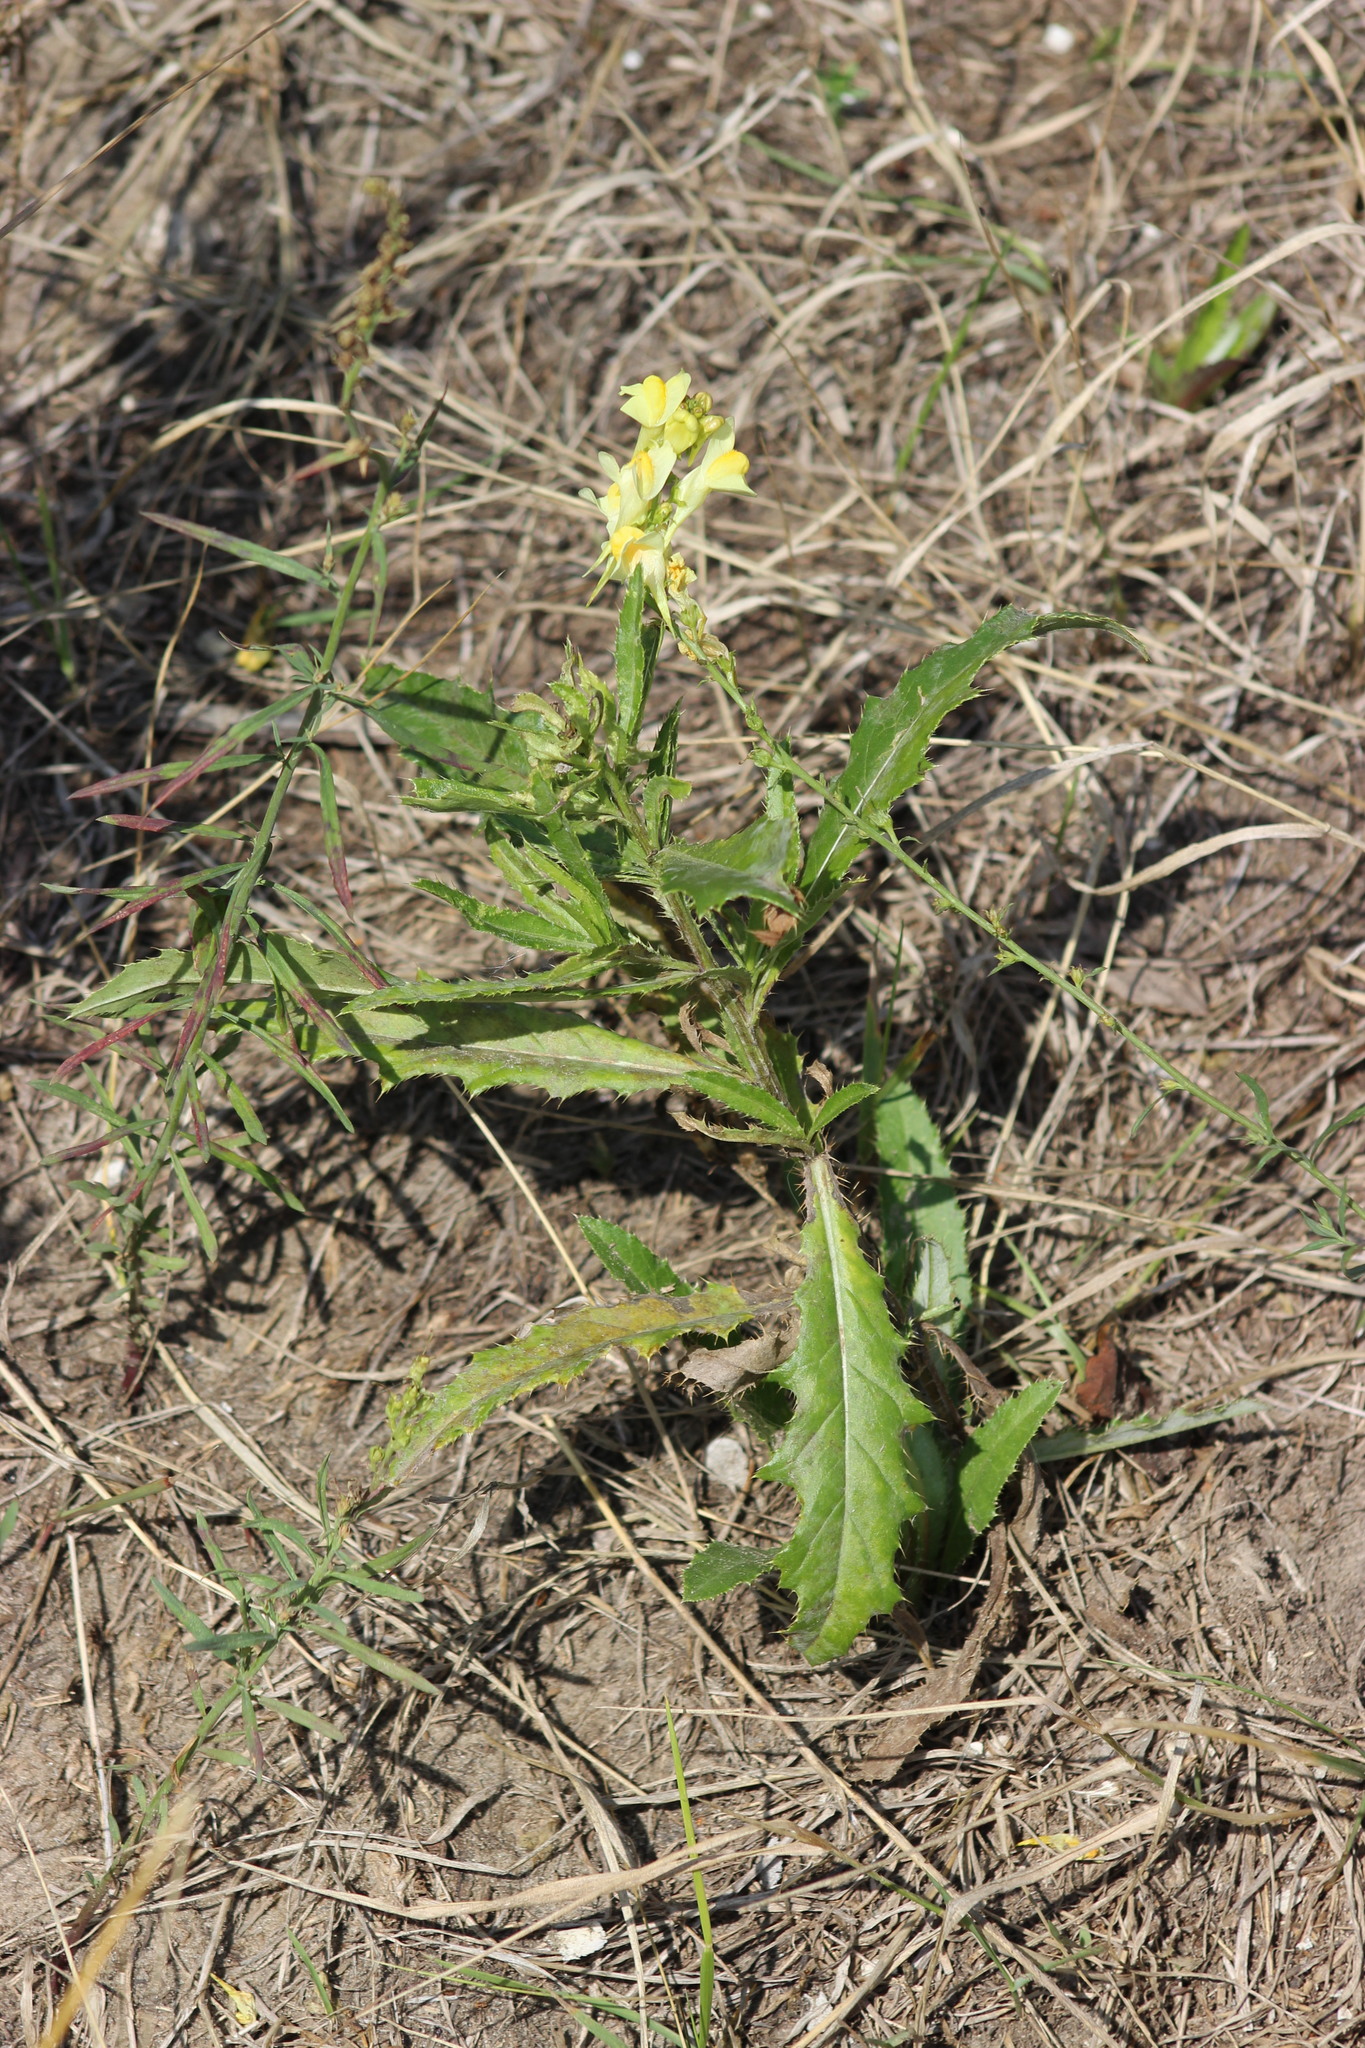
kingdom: Plantae
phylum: Tracheophyta
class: Magnoliopsida
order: Lamiales
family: Plantaginaceae
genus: Linaria
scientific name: Linaria vulgaris
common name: Butter and eggs
